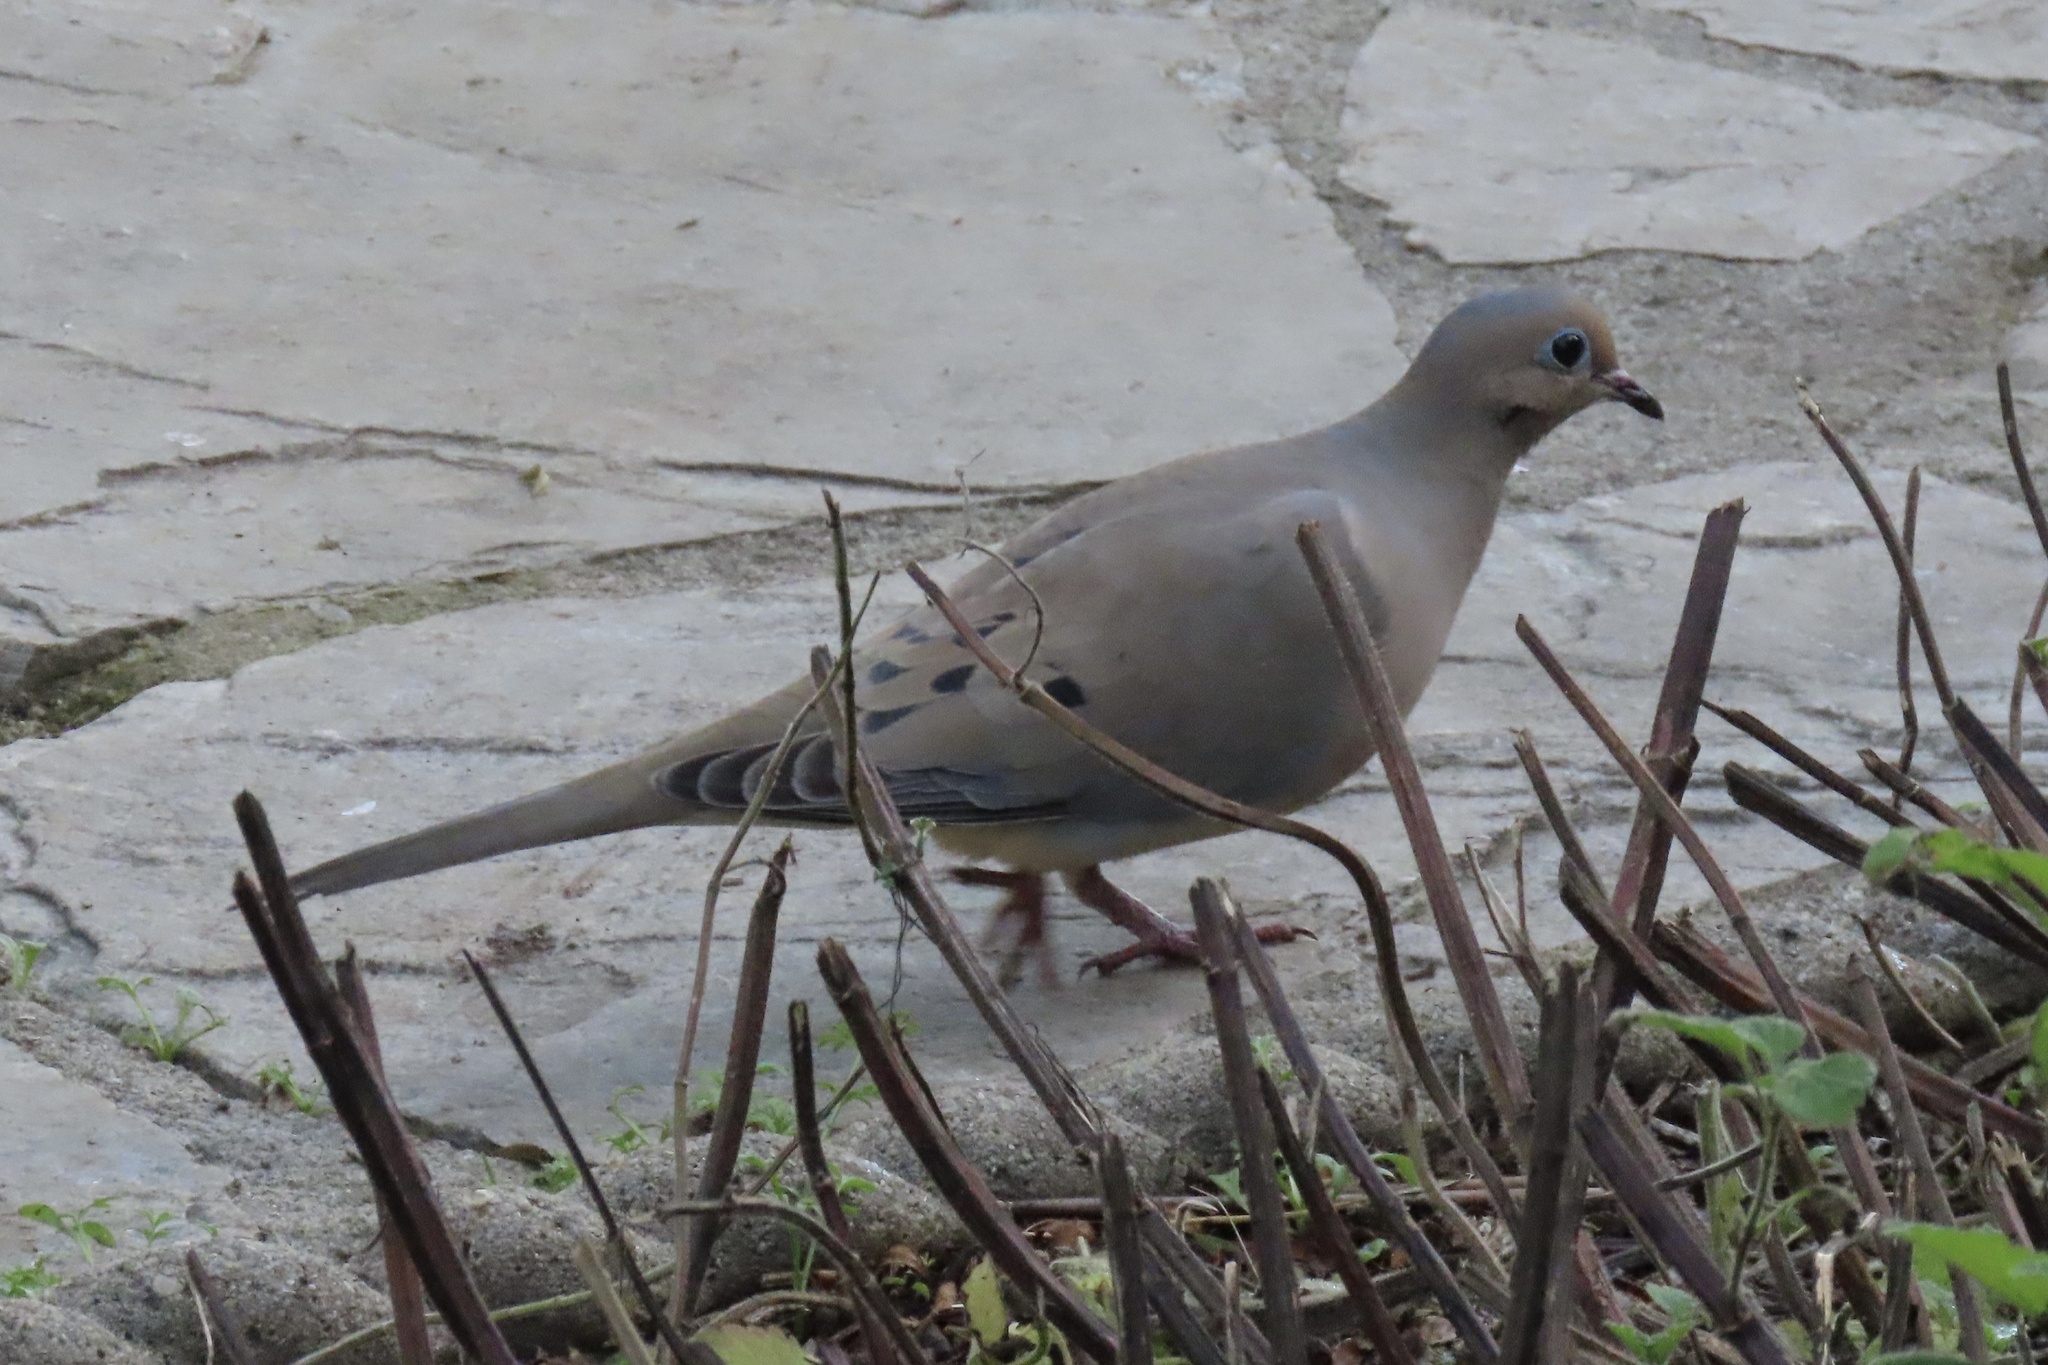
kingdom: Animalia
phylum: Chordata
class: Aves
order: Columbiformes
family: Columbidae
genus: Zenaida
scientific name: Zenaida macroura
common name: Mourning dove
